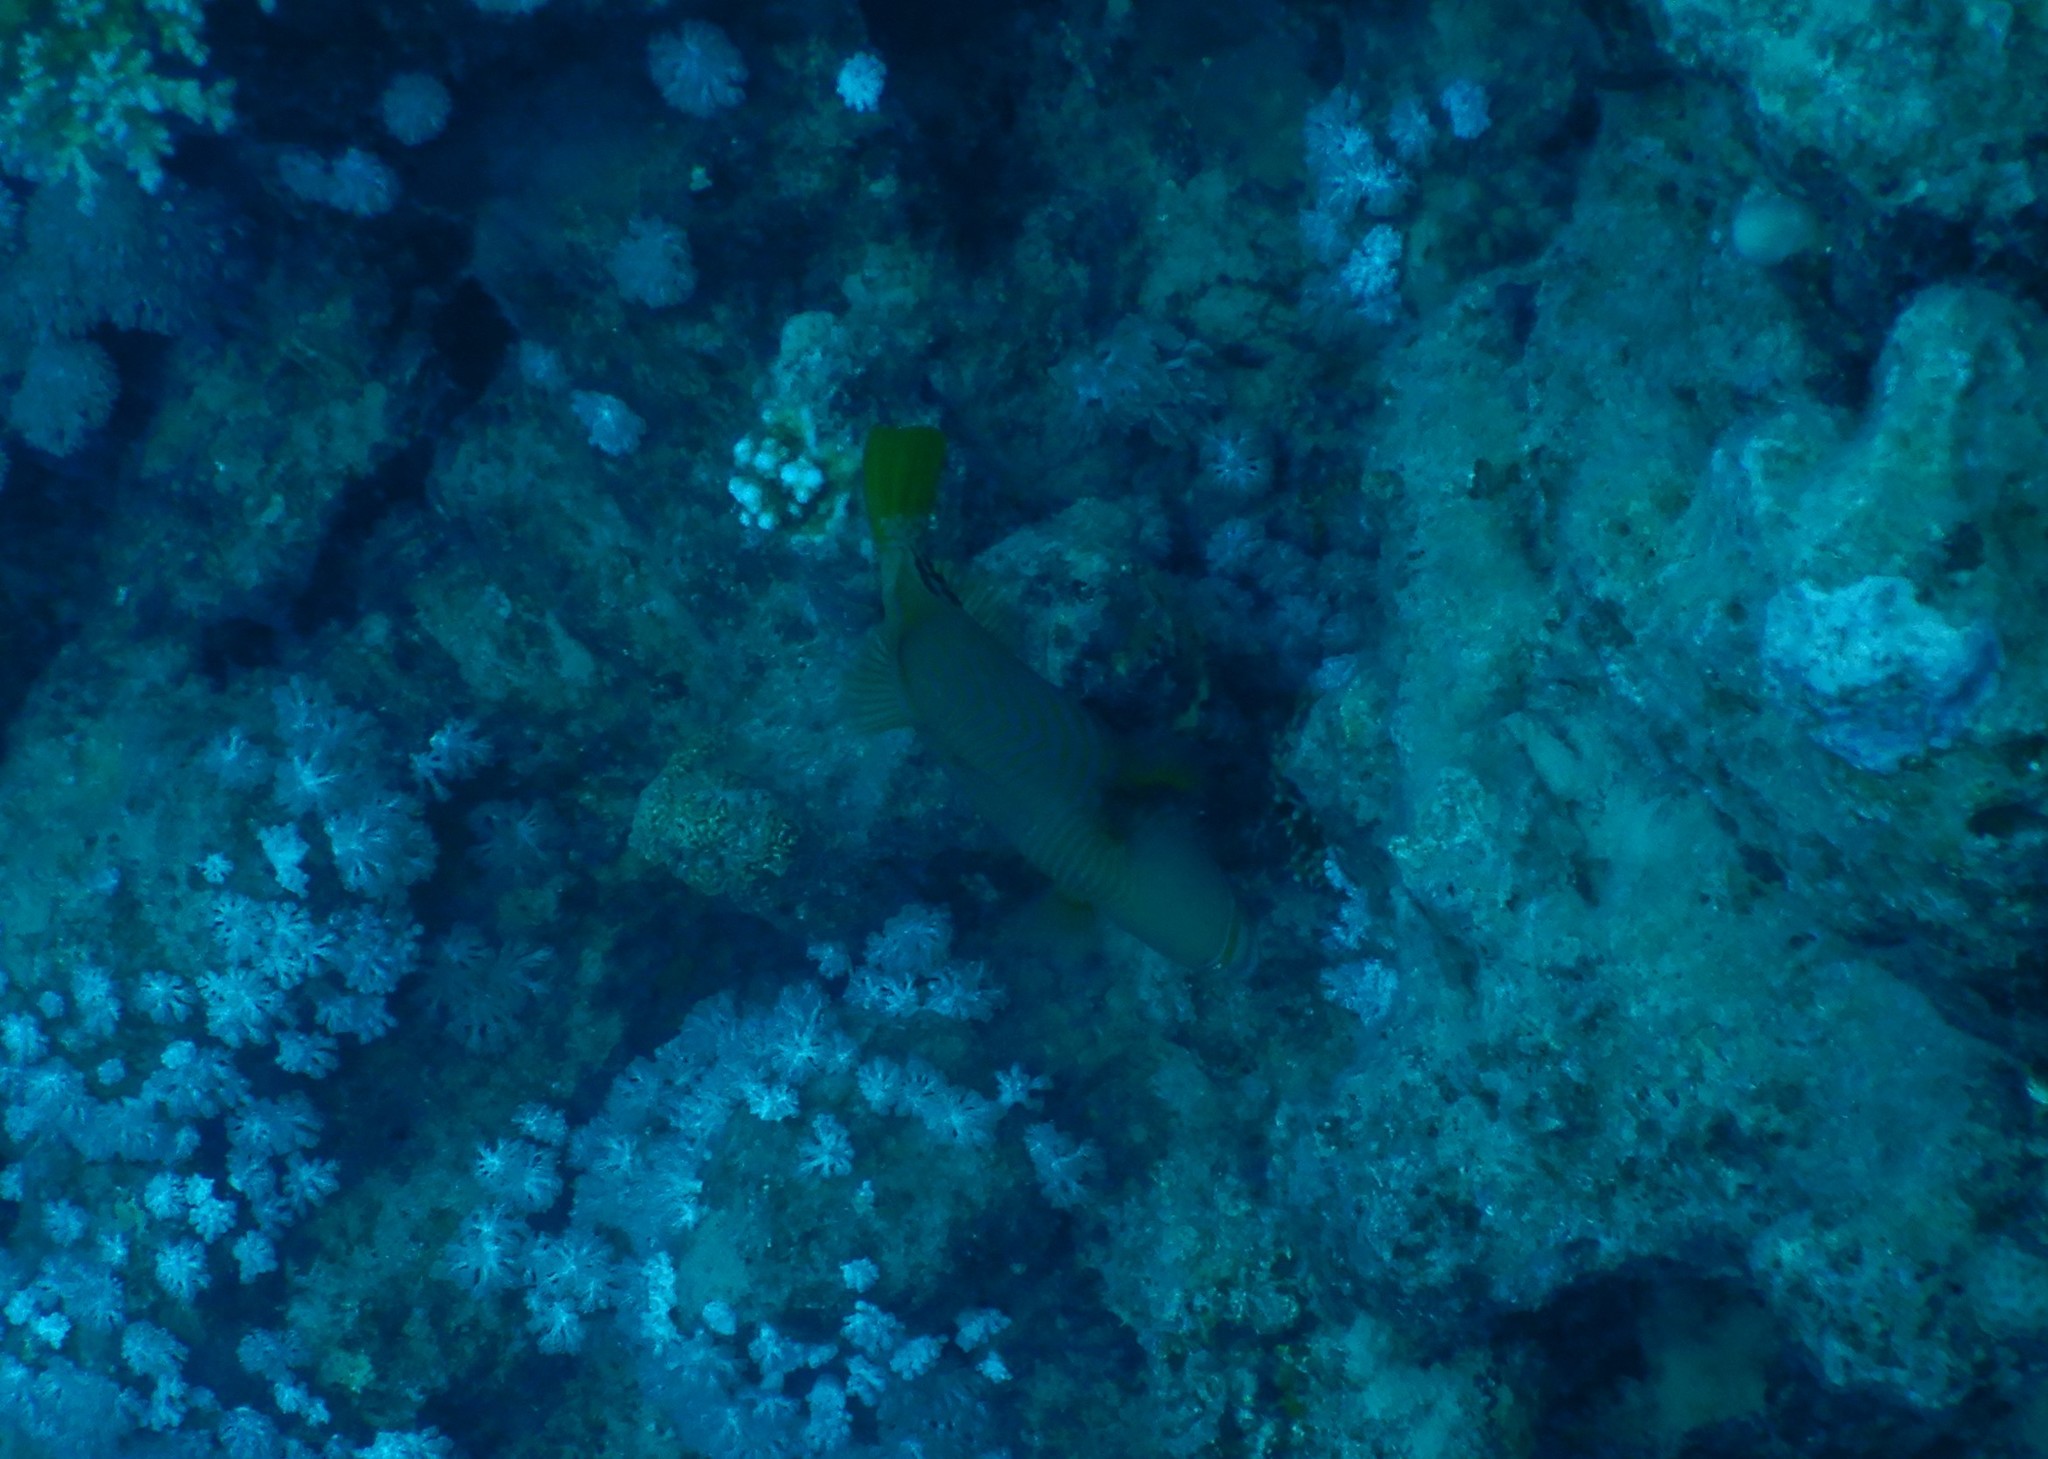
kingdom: Animalia
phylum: Chordata
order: Tetraodontiformes
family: Balistidae
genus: Balistapus
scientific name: Balistapus undulatus
